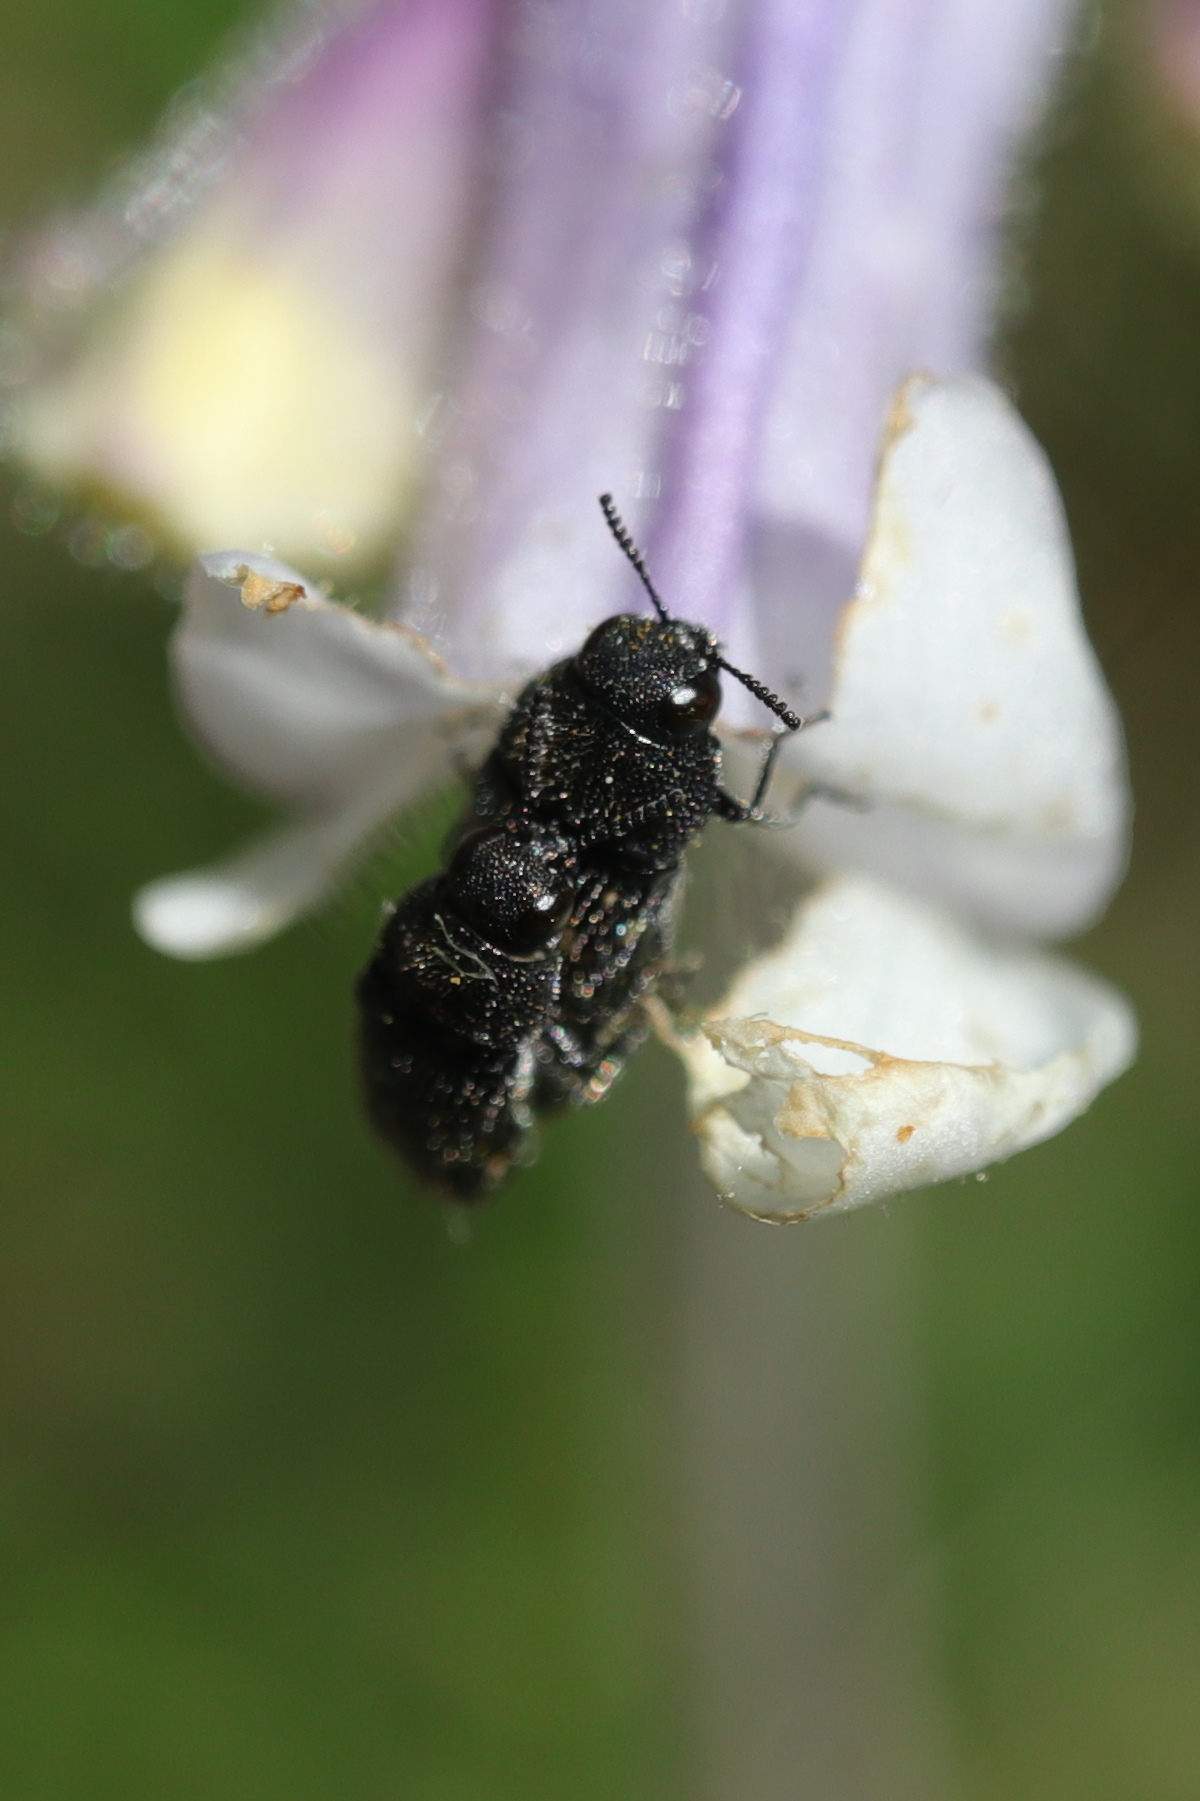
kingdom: Animalia
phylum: Arthropoda
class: Insecta
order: Coleoptera
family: Buprestidae
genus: Acmaeodera
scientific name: Acmaeodera tubulus
